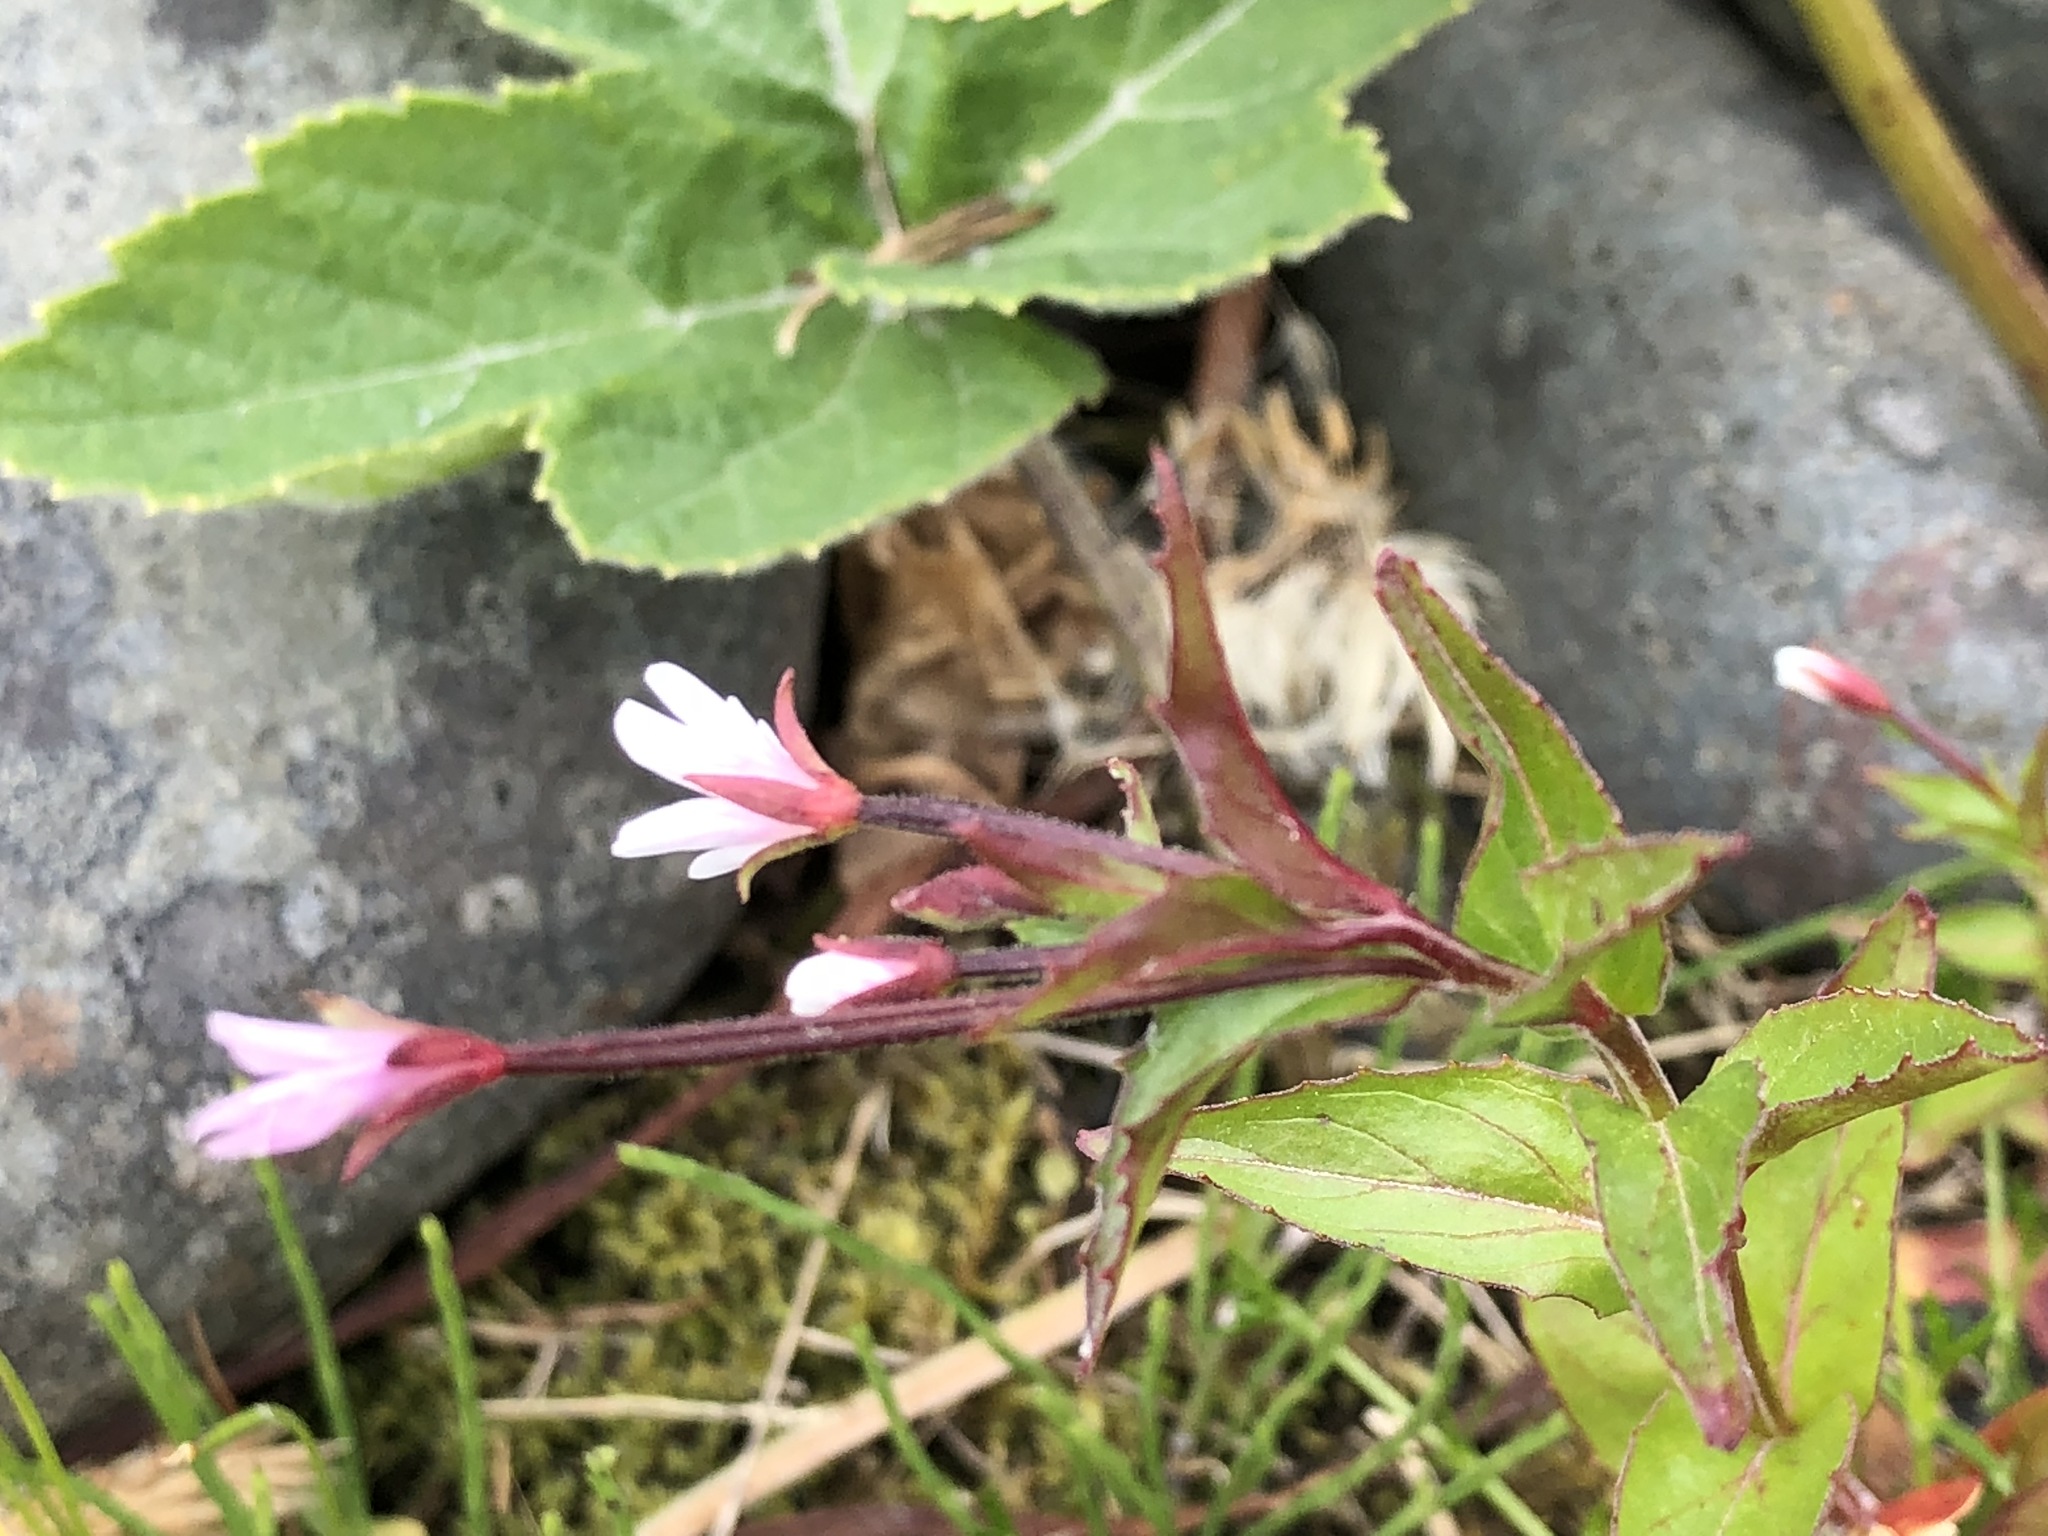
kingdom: Plantae
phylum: Tracheophyta
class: Magnoliopsida
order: Myrtales
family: Onagraceae
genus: Epilobium
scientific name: Epilobium hornemannii
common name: Hornemann's willowherb
